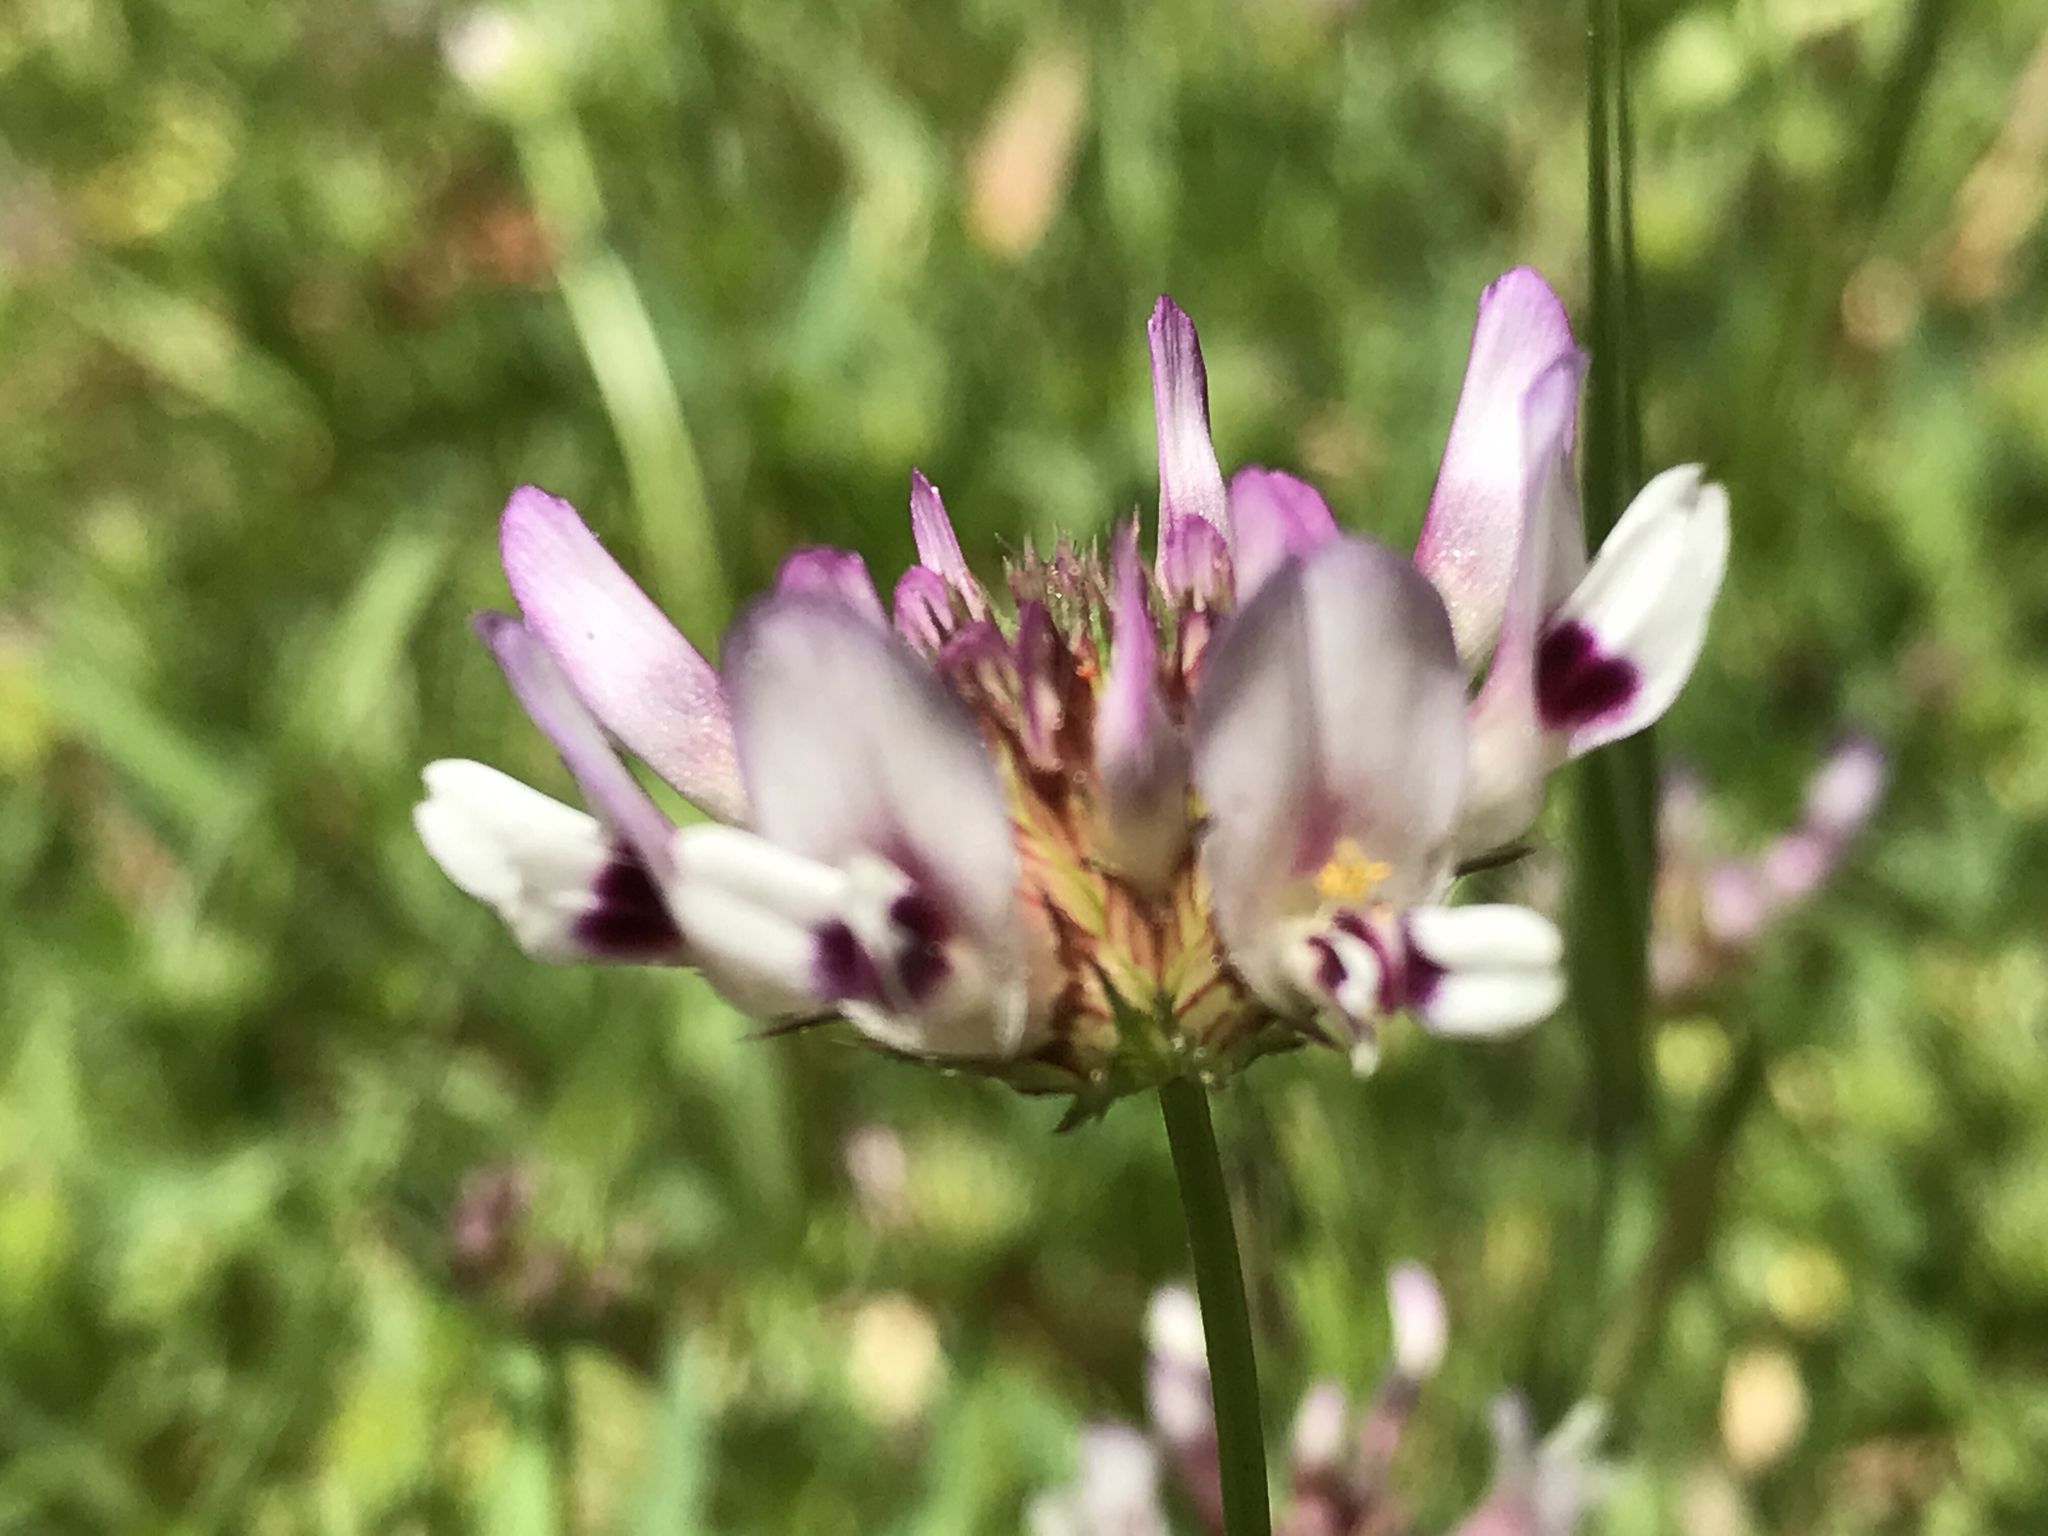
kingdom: Plantae
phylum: Tracheophyta
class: Magnoliopsida
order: Fabales
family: Fabaceae
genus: Trifolium
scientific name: Trifolium willdenovii
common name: Tomcat clover
